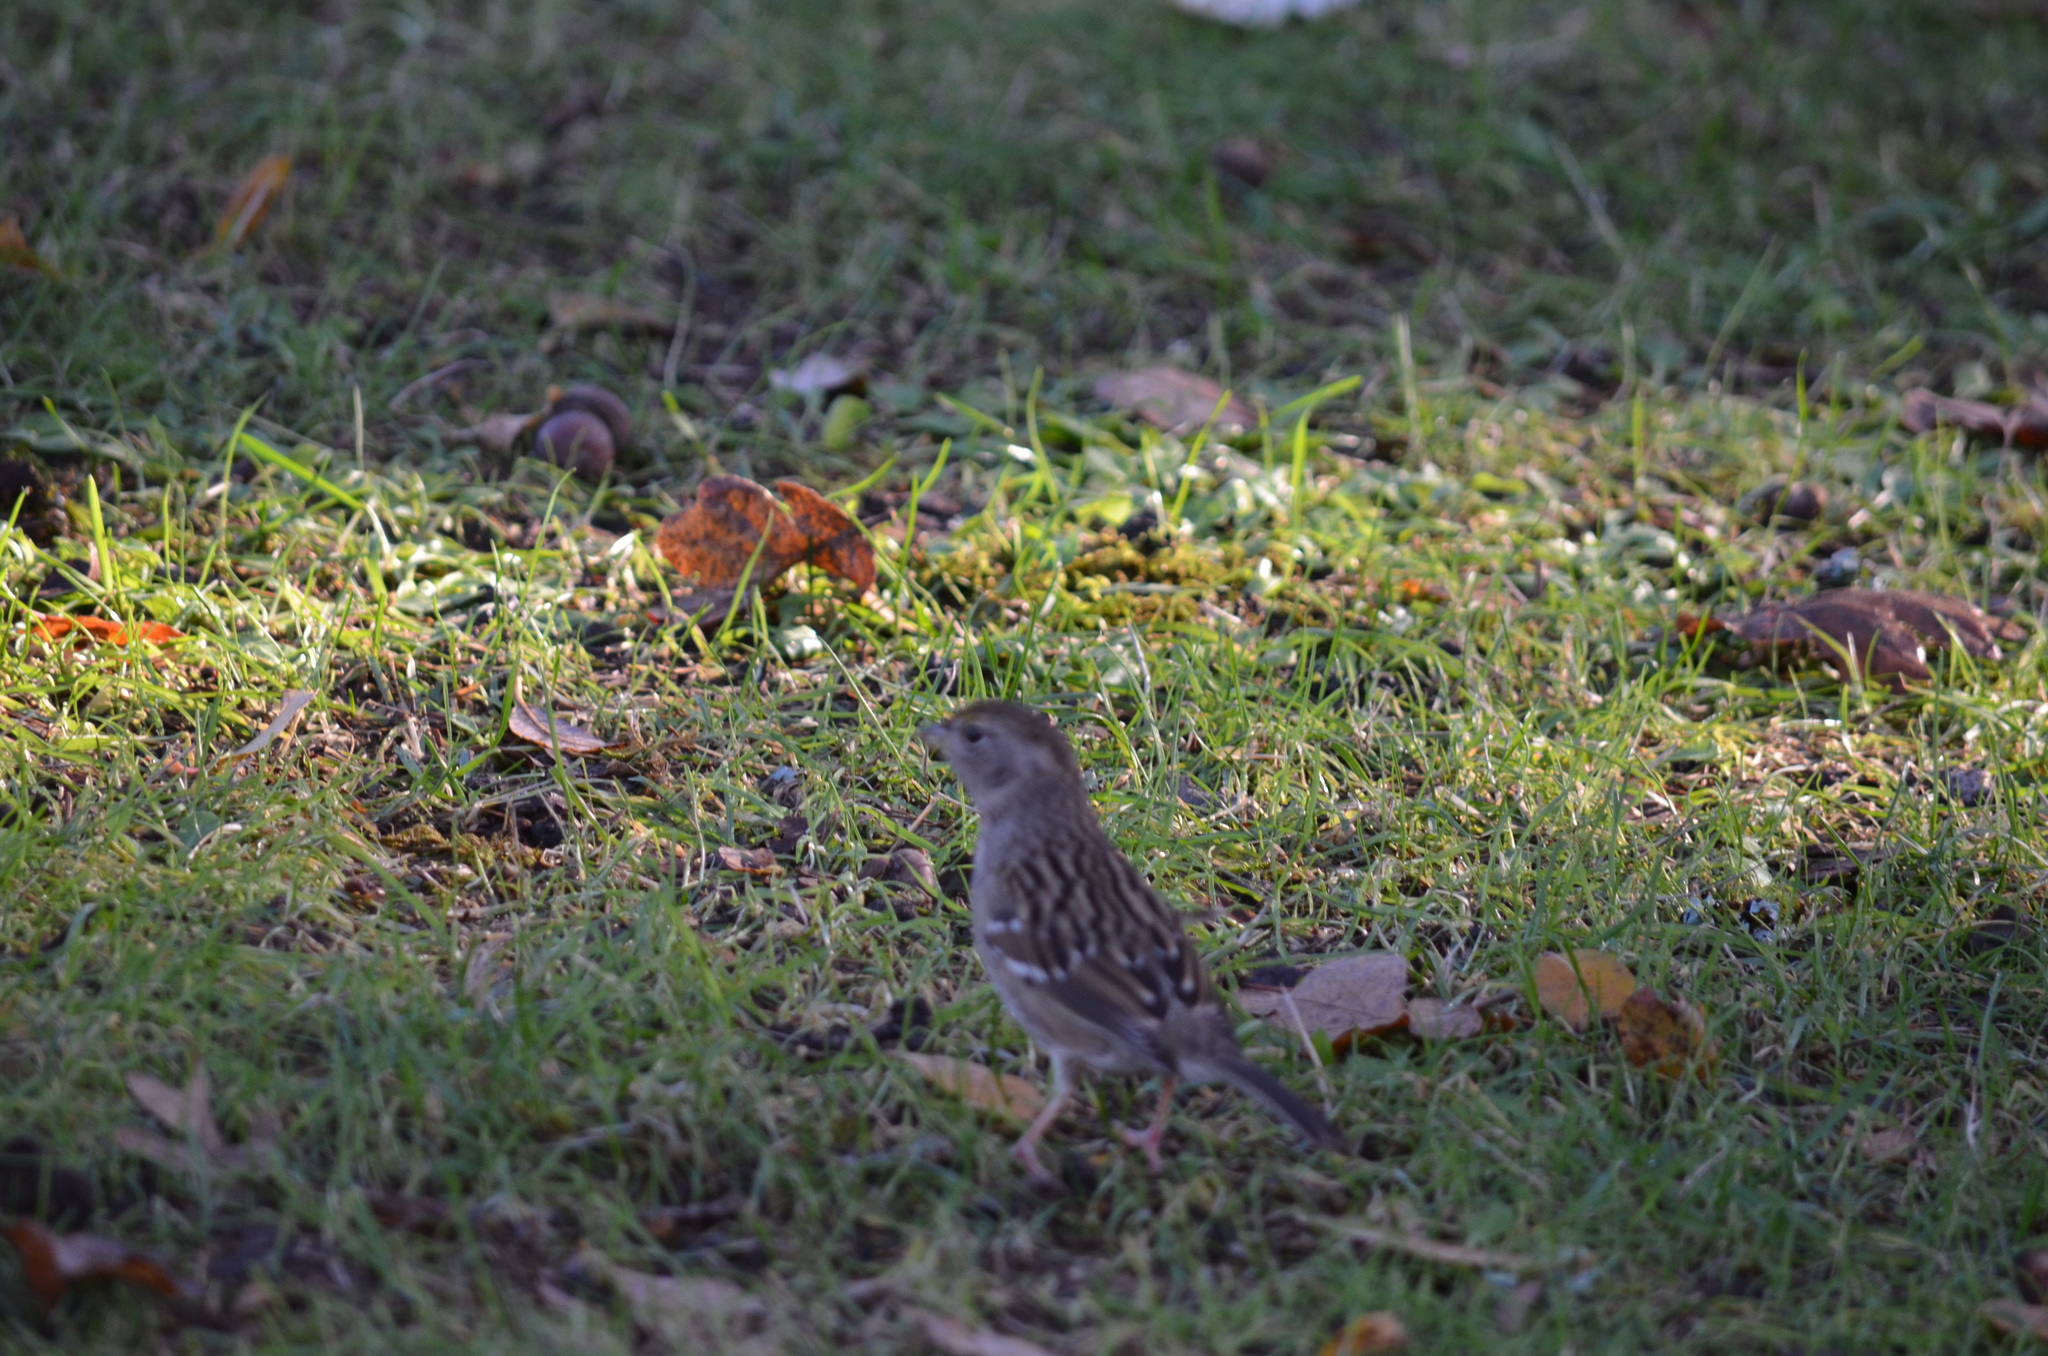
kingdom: Animalia
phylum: Chordata
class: Aves
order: Passeriformes
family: Passerellidae
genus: Zonotrichia
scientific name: Zonotrichia atricapilla
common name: Golden-crowned sparrow
